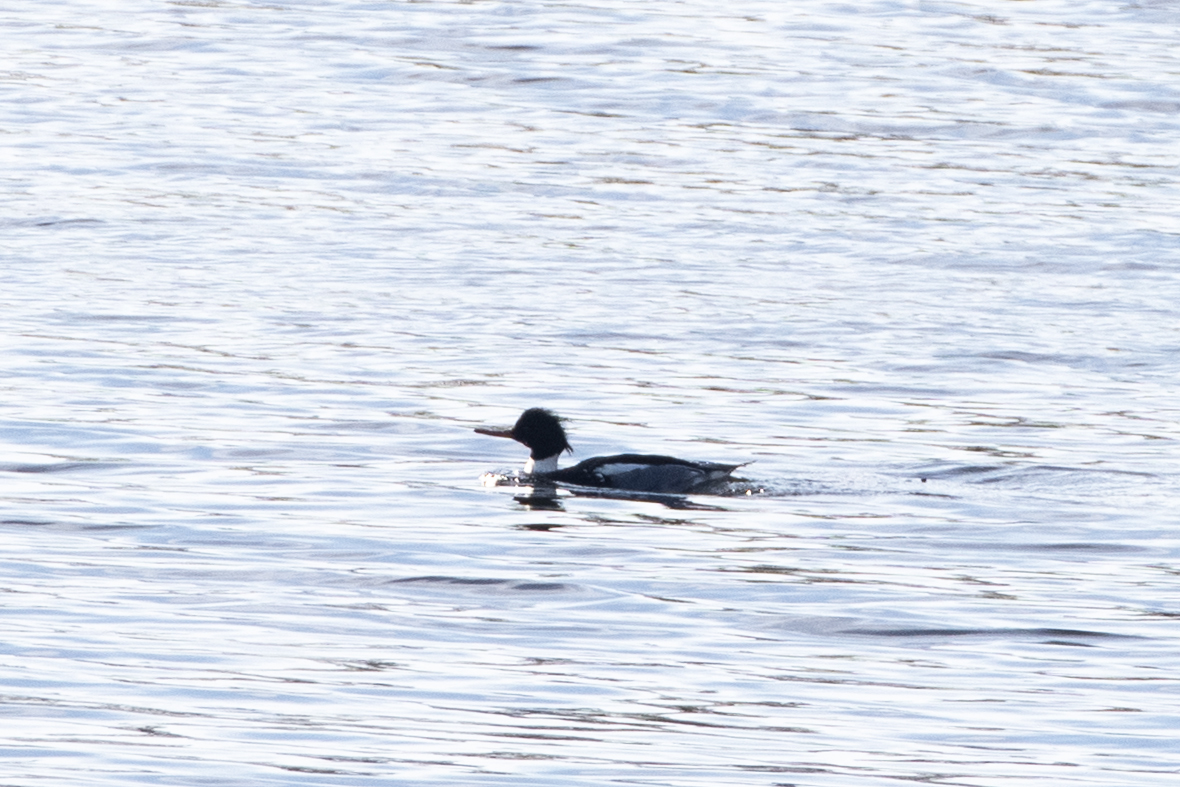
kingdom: Animalia
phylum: Chordata
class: Aves
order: Anseriformes
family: Anatidae
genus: Mergus
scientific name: Mergus serrator
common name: Red-breasted merganser
